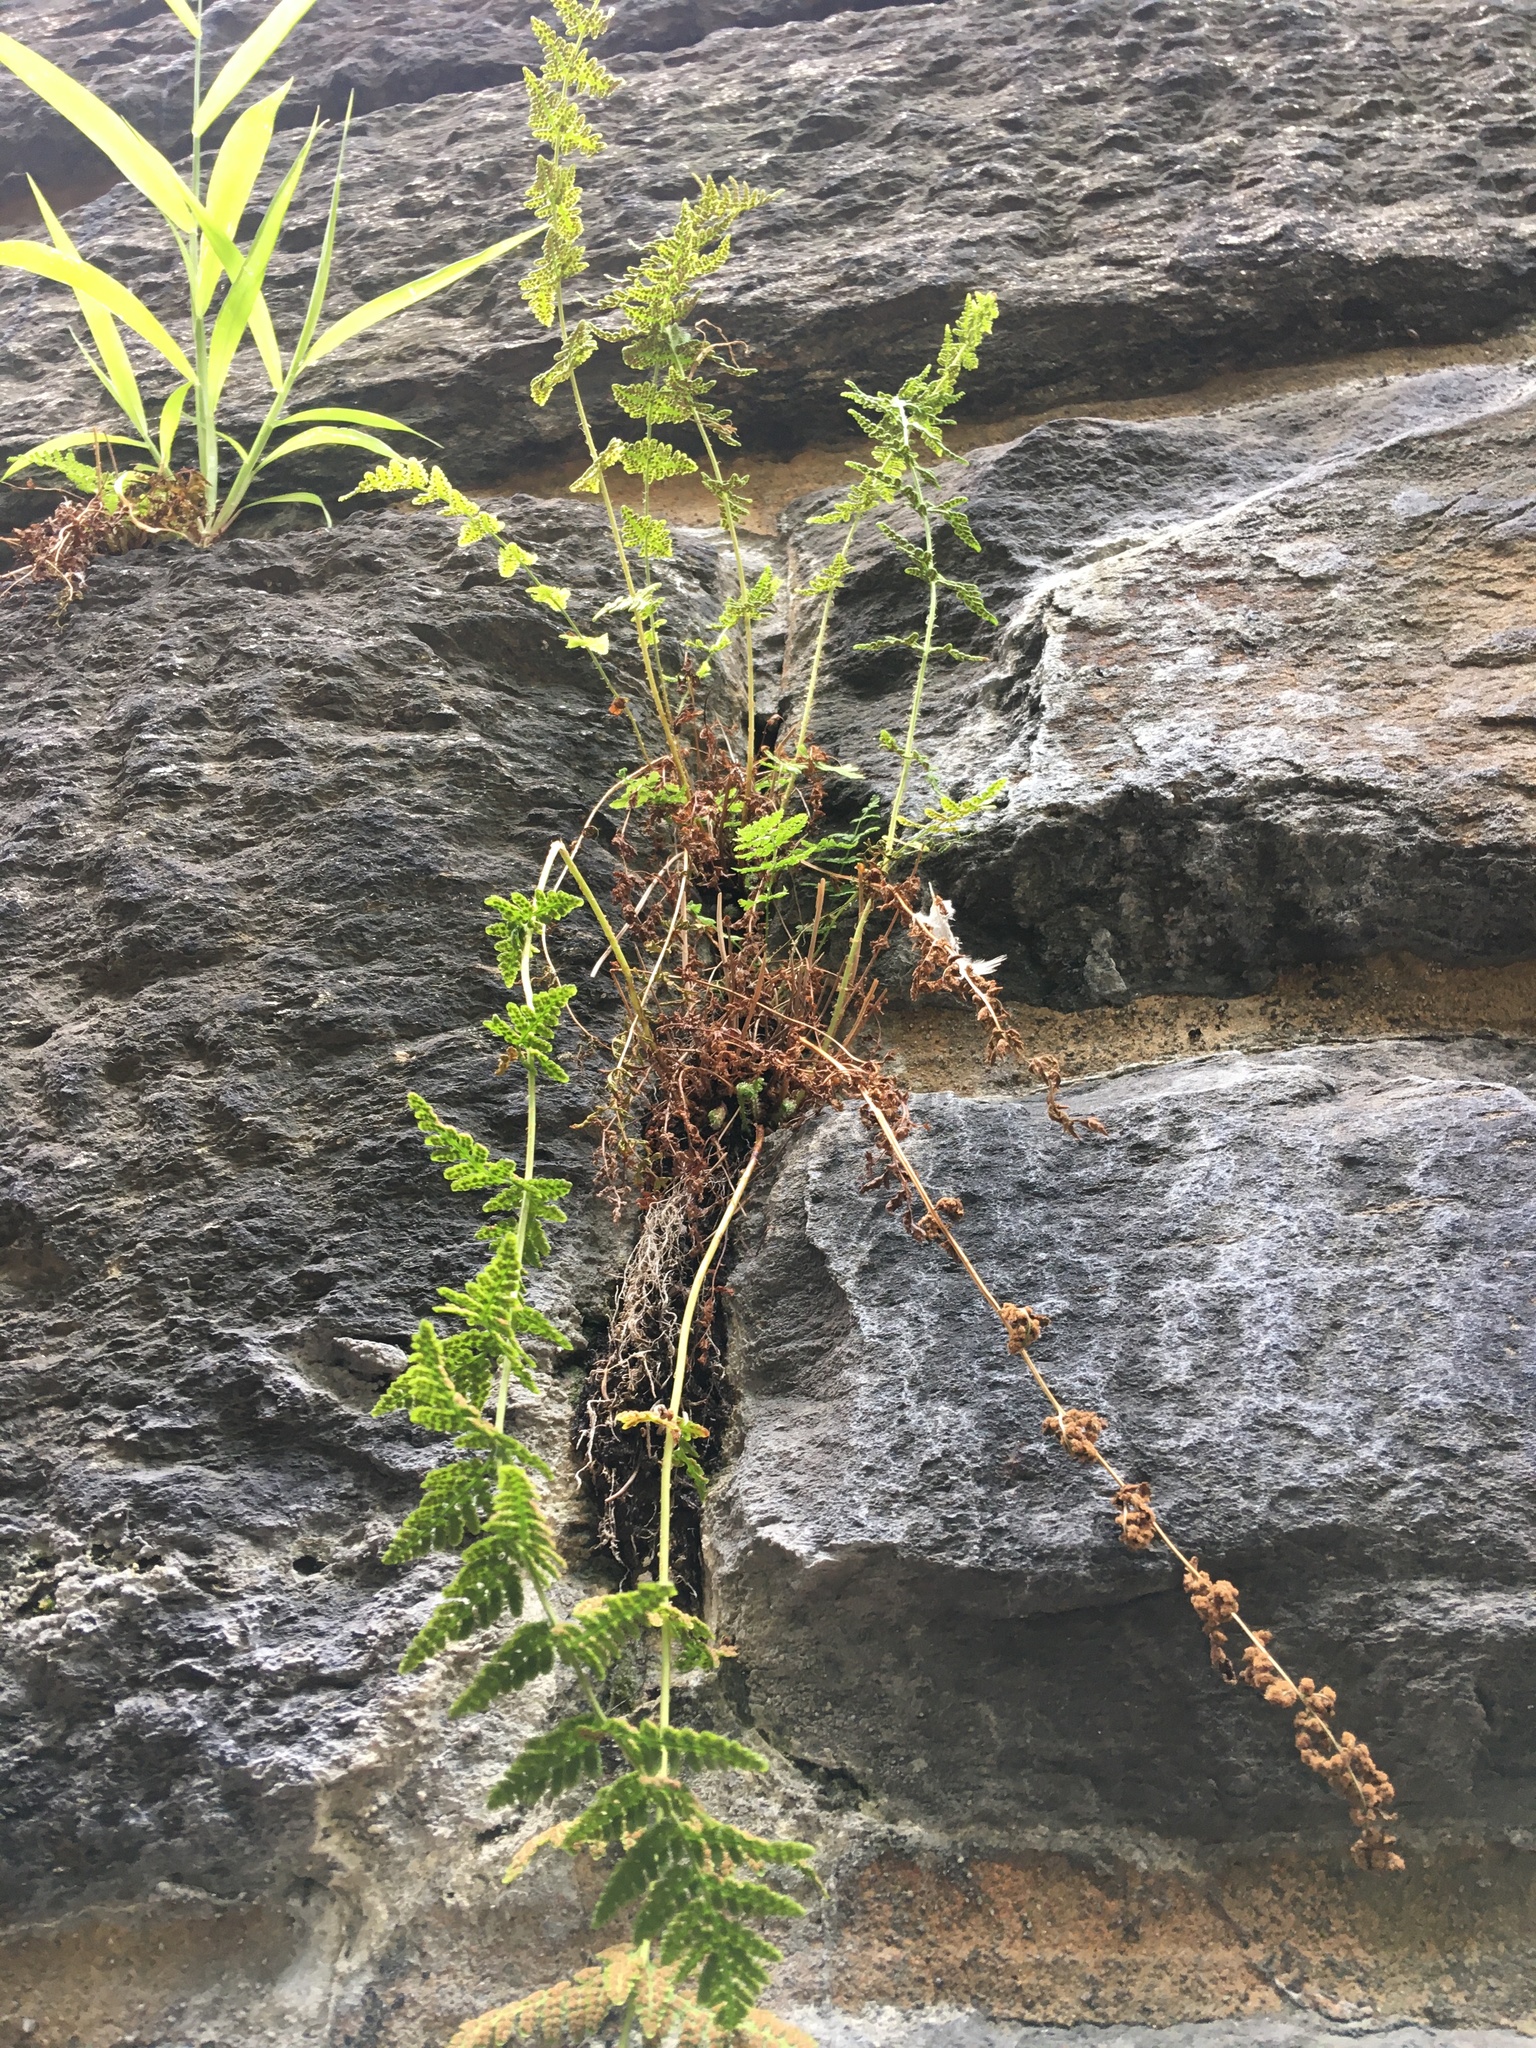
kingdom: Plantae
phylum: Tracheophyta
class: Polypodiopsida
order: Polypodiales
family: Woodsiaceae
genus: Physematium
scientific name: Physematium obtusum
